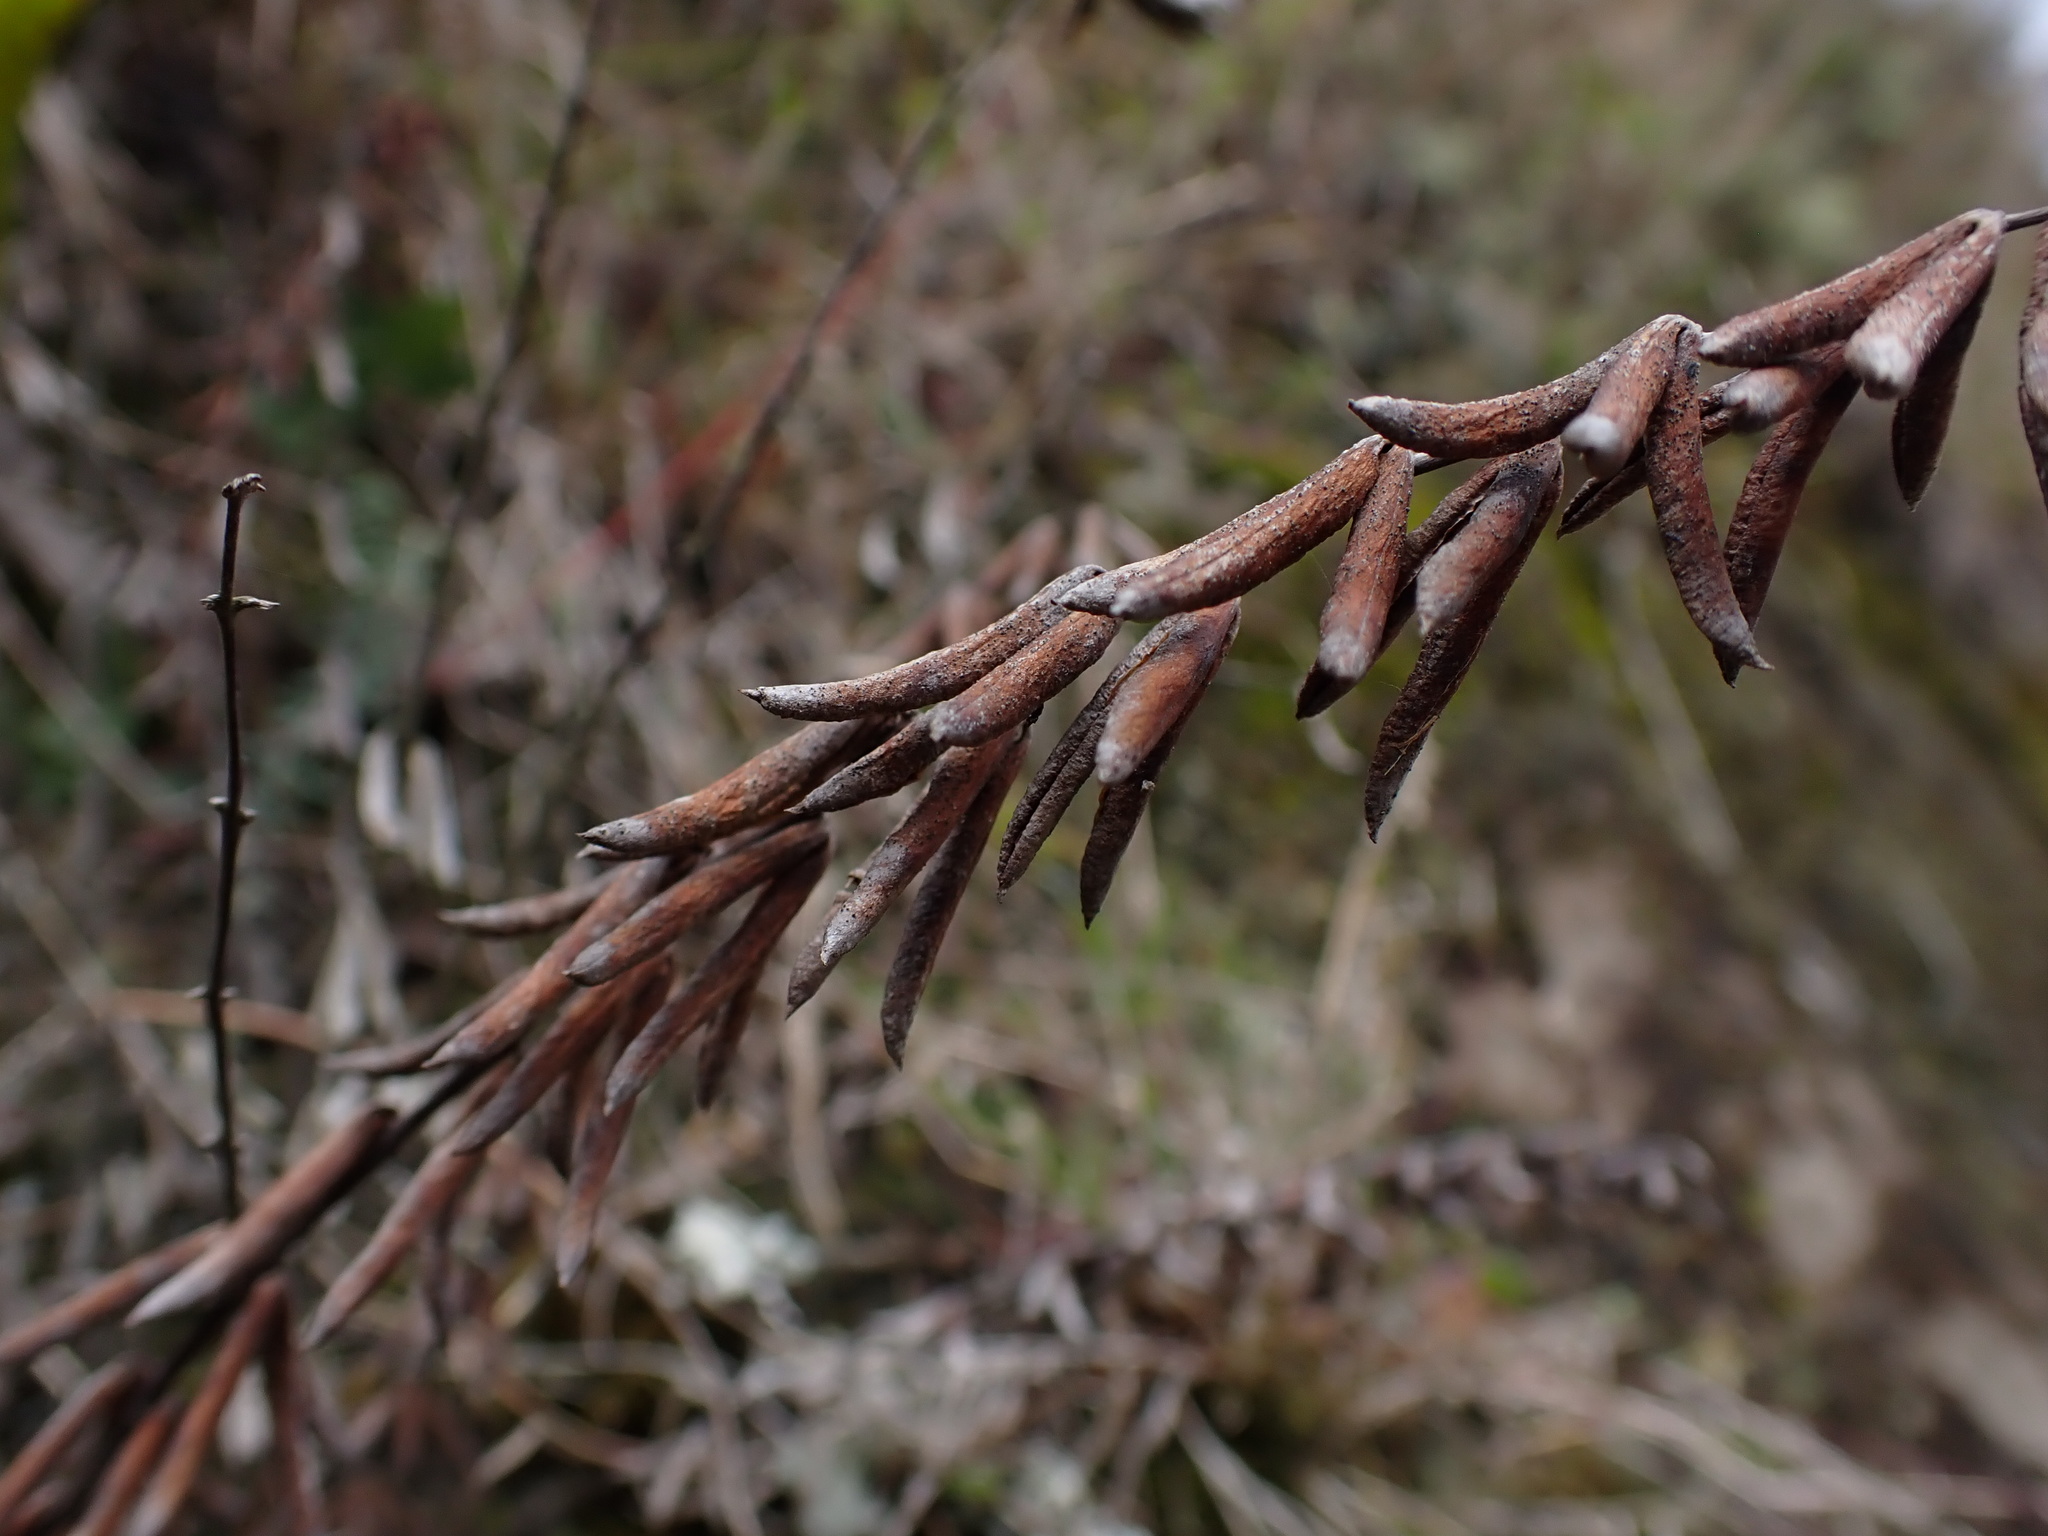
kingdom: Plantae
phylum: Tracheophyta
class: Polypodiopsida
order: Polypodiales
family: Pteridaceae
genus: Pellaea
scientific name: Pellaea ternifolia
